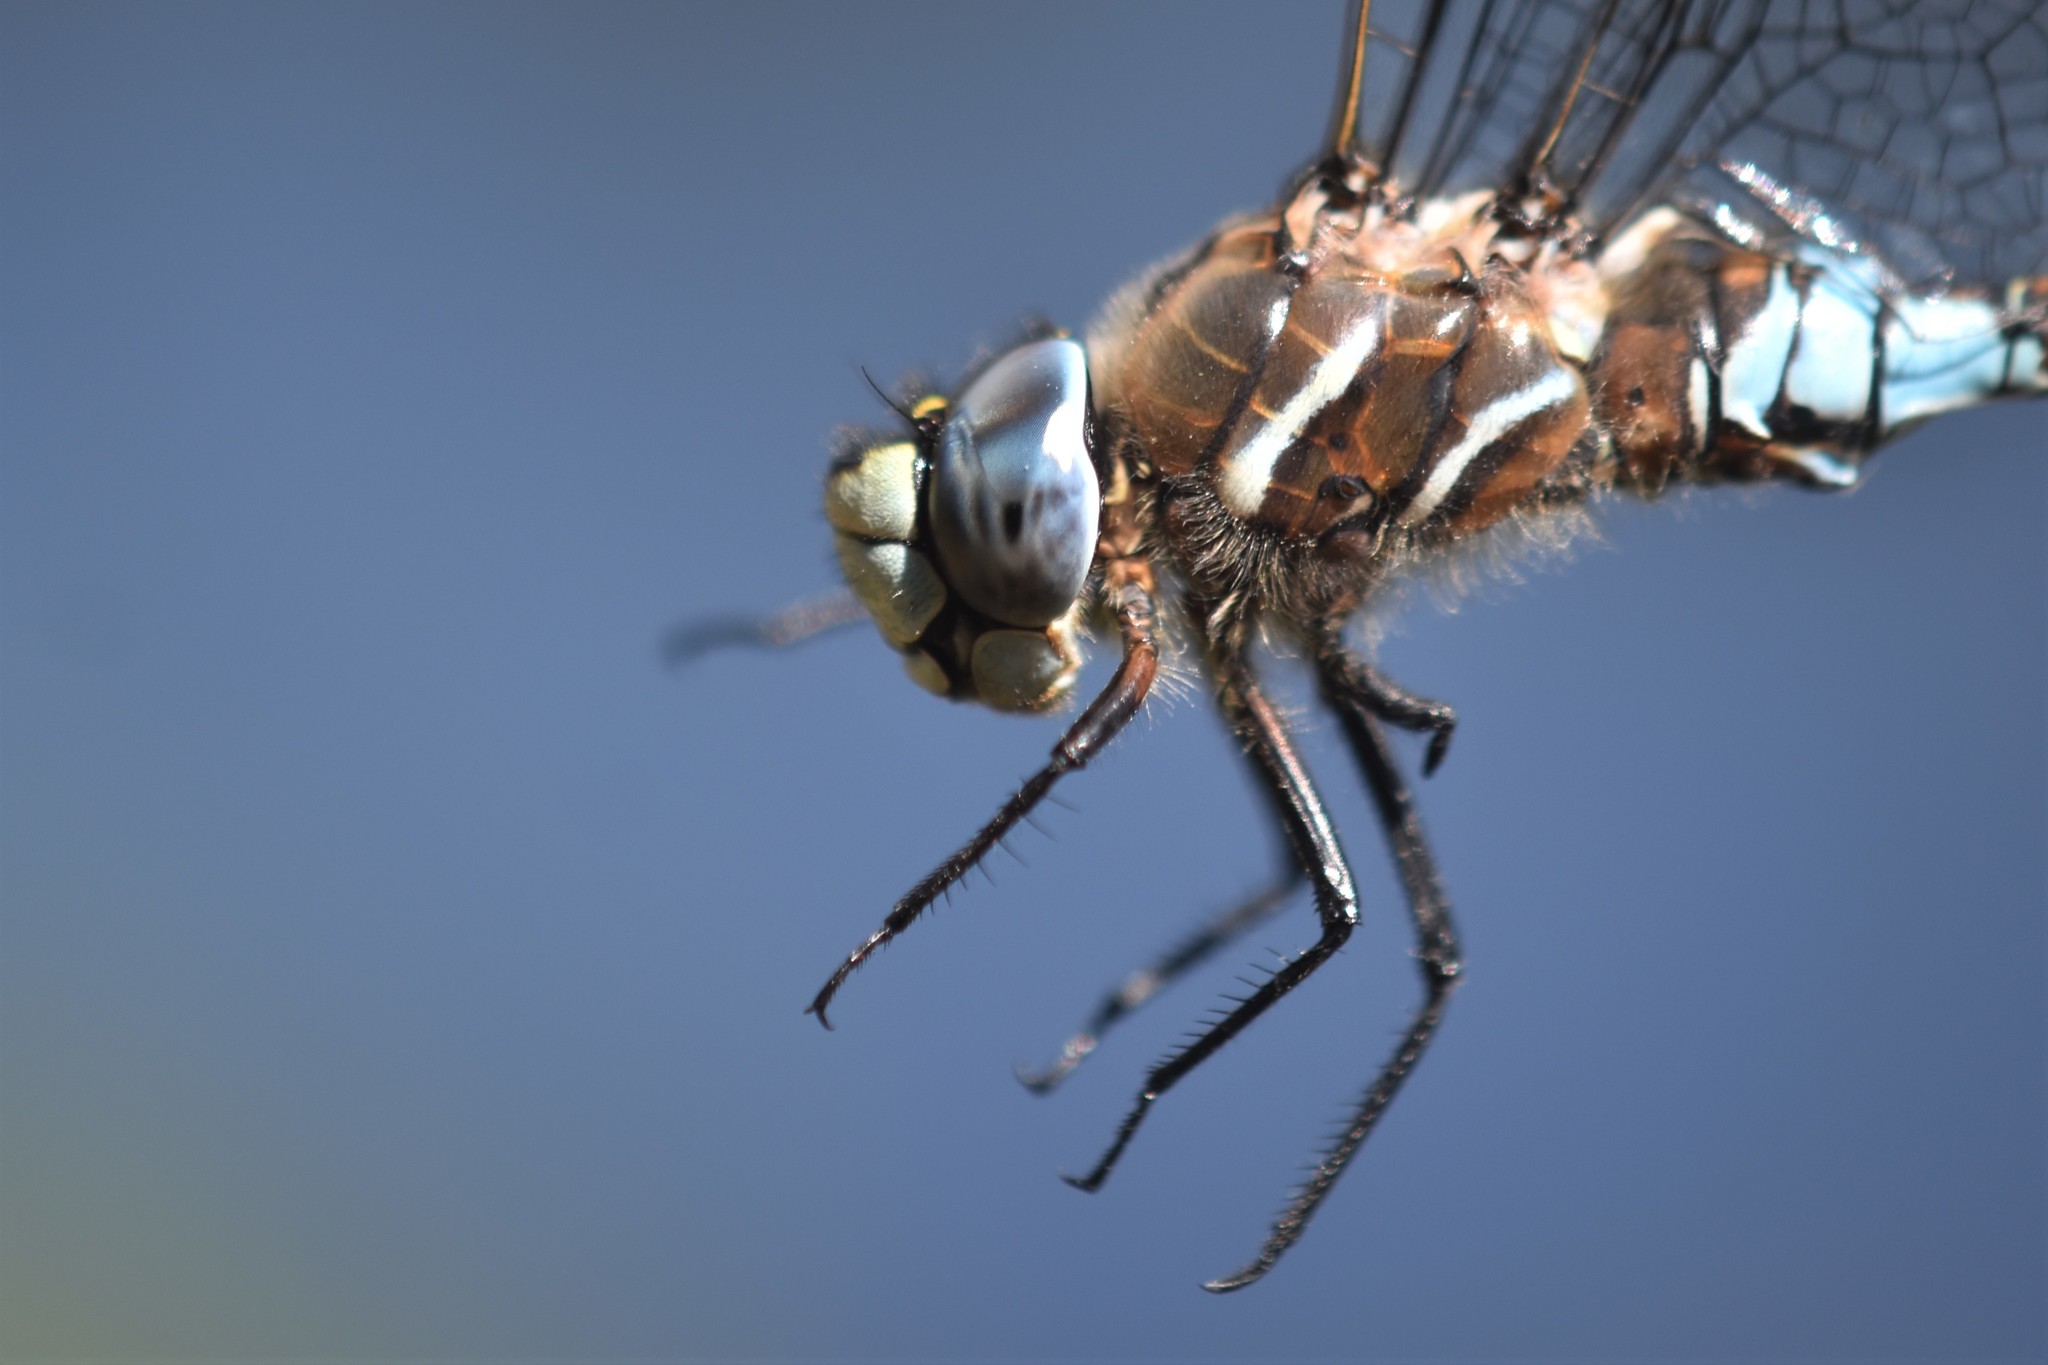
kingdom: Animalia
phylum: Arthropoda
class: Insecta
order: Odonata
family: Aeshnidae
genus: Rhionaeschna
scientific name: Rhionaeschna californica
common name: California darner
